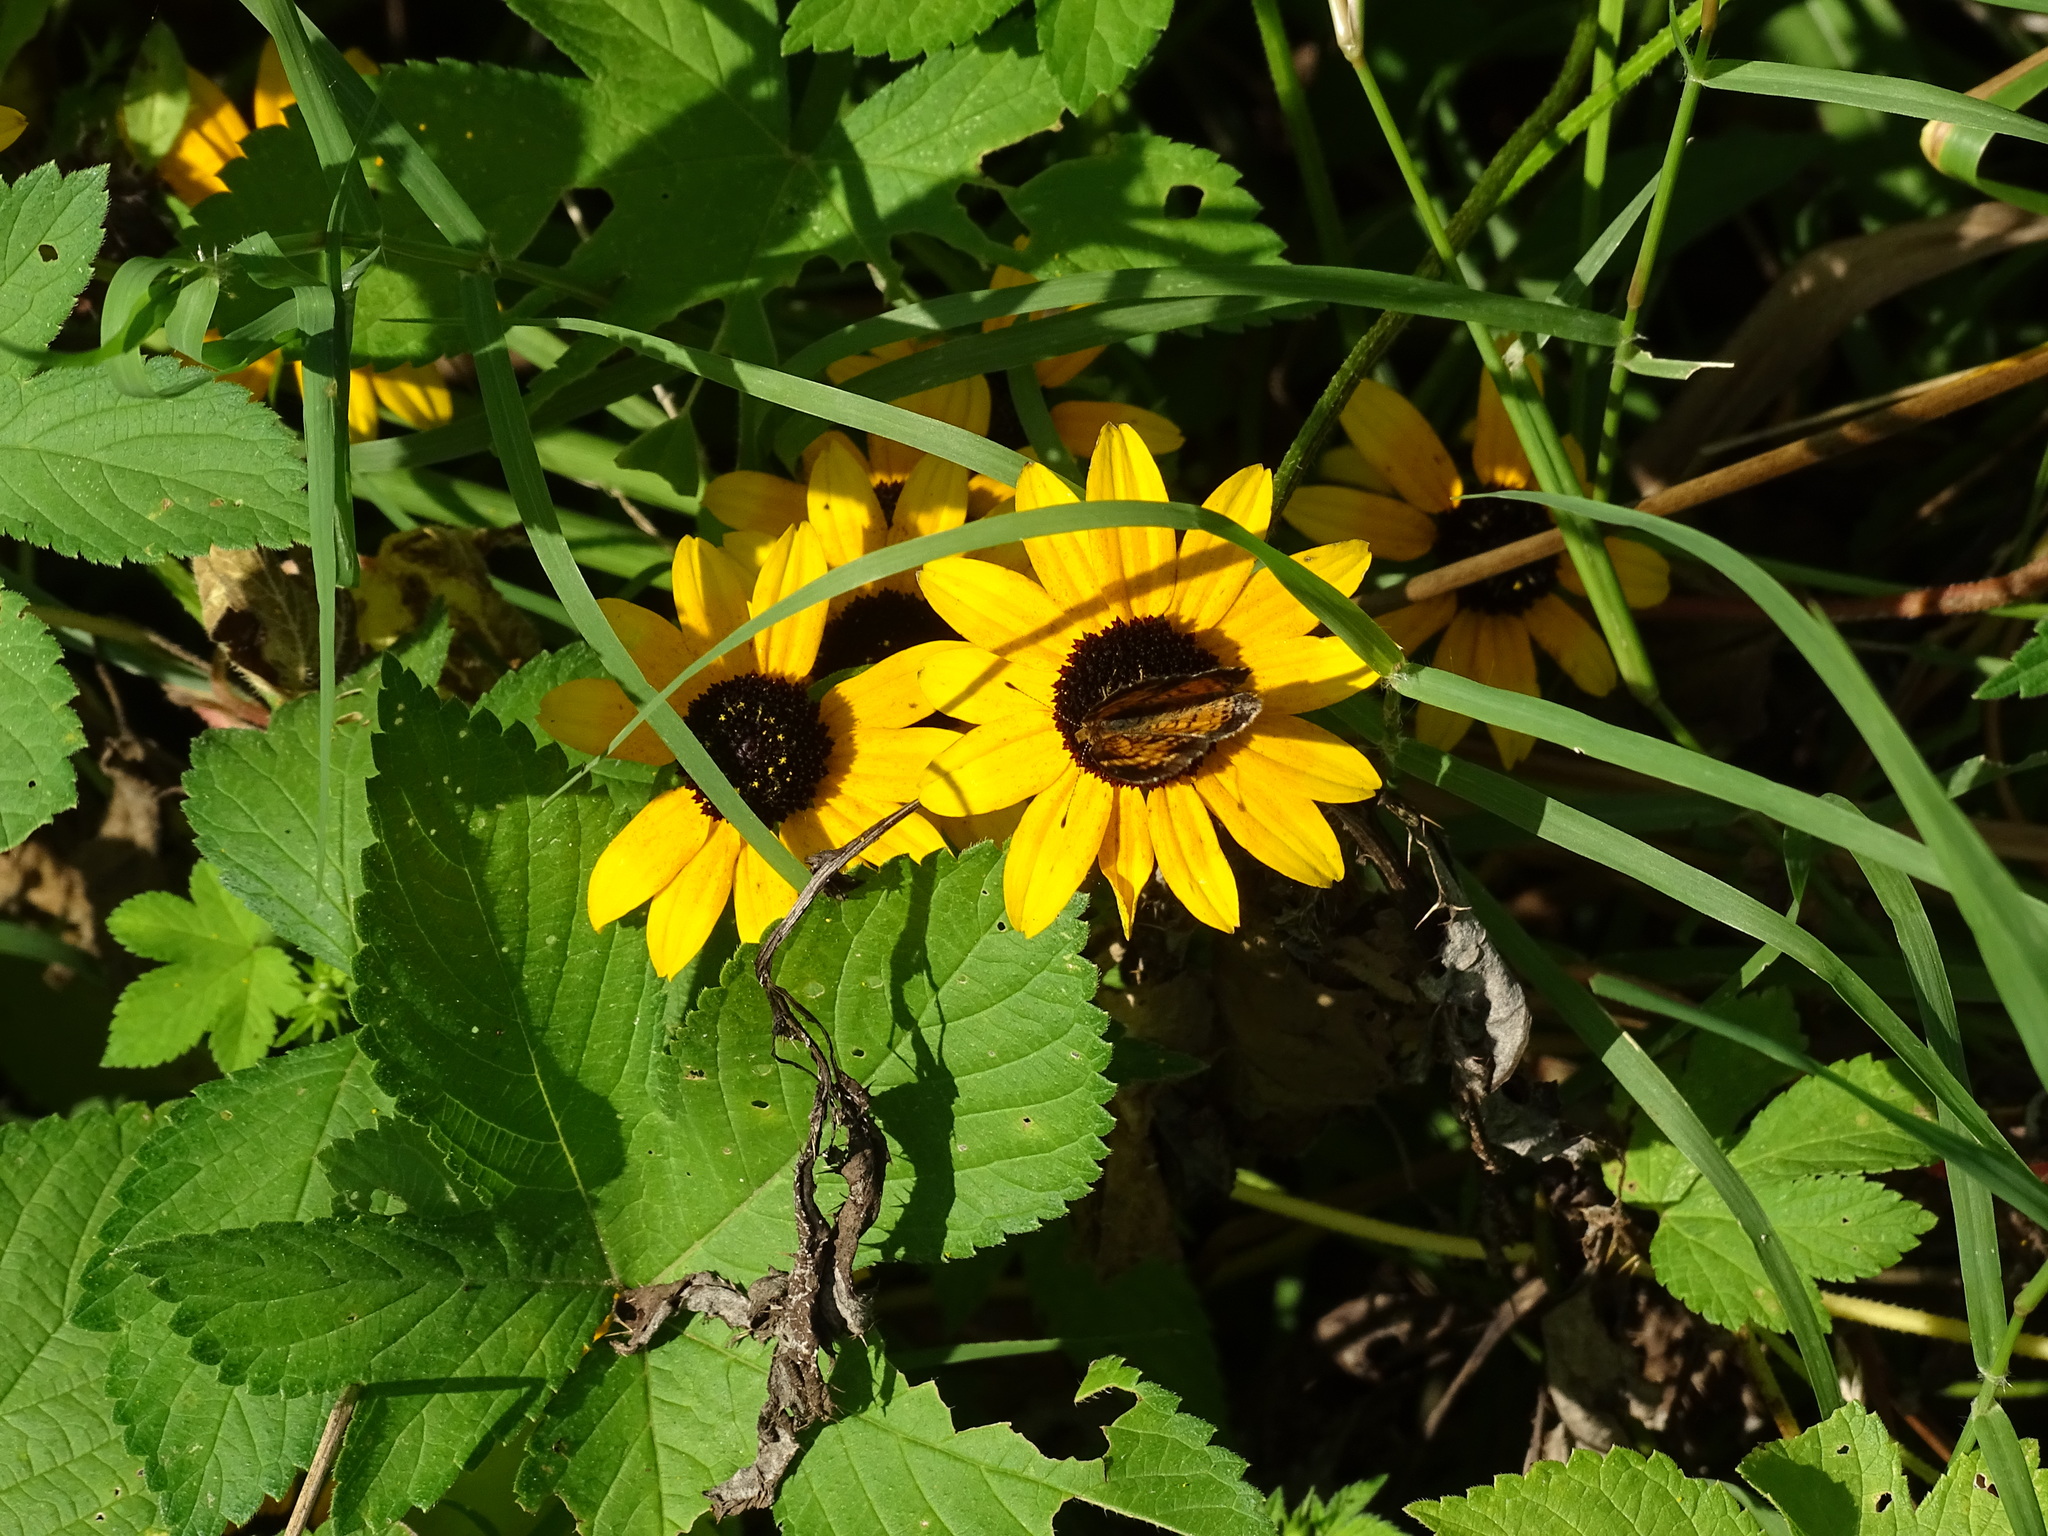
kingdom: Animalia
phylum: Arthropoda
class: Insecta
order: Lepidoptera
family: Nymphalidae
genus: Phyciodes
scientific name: Phyciodes tharos
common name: Pearl crescent
